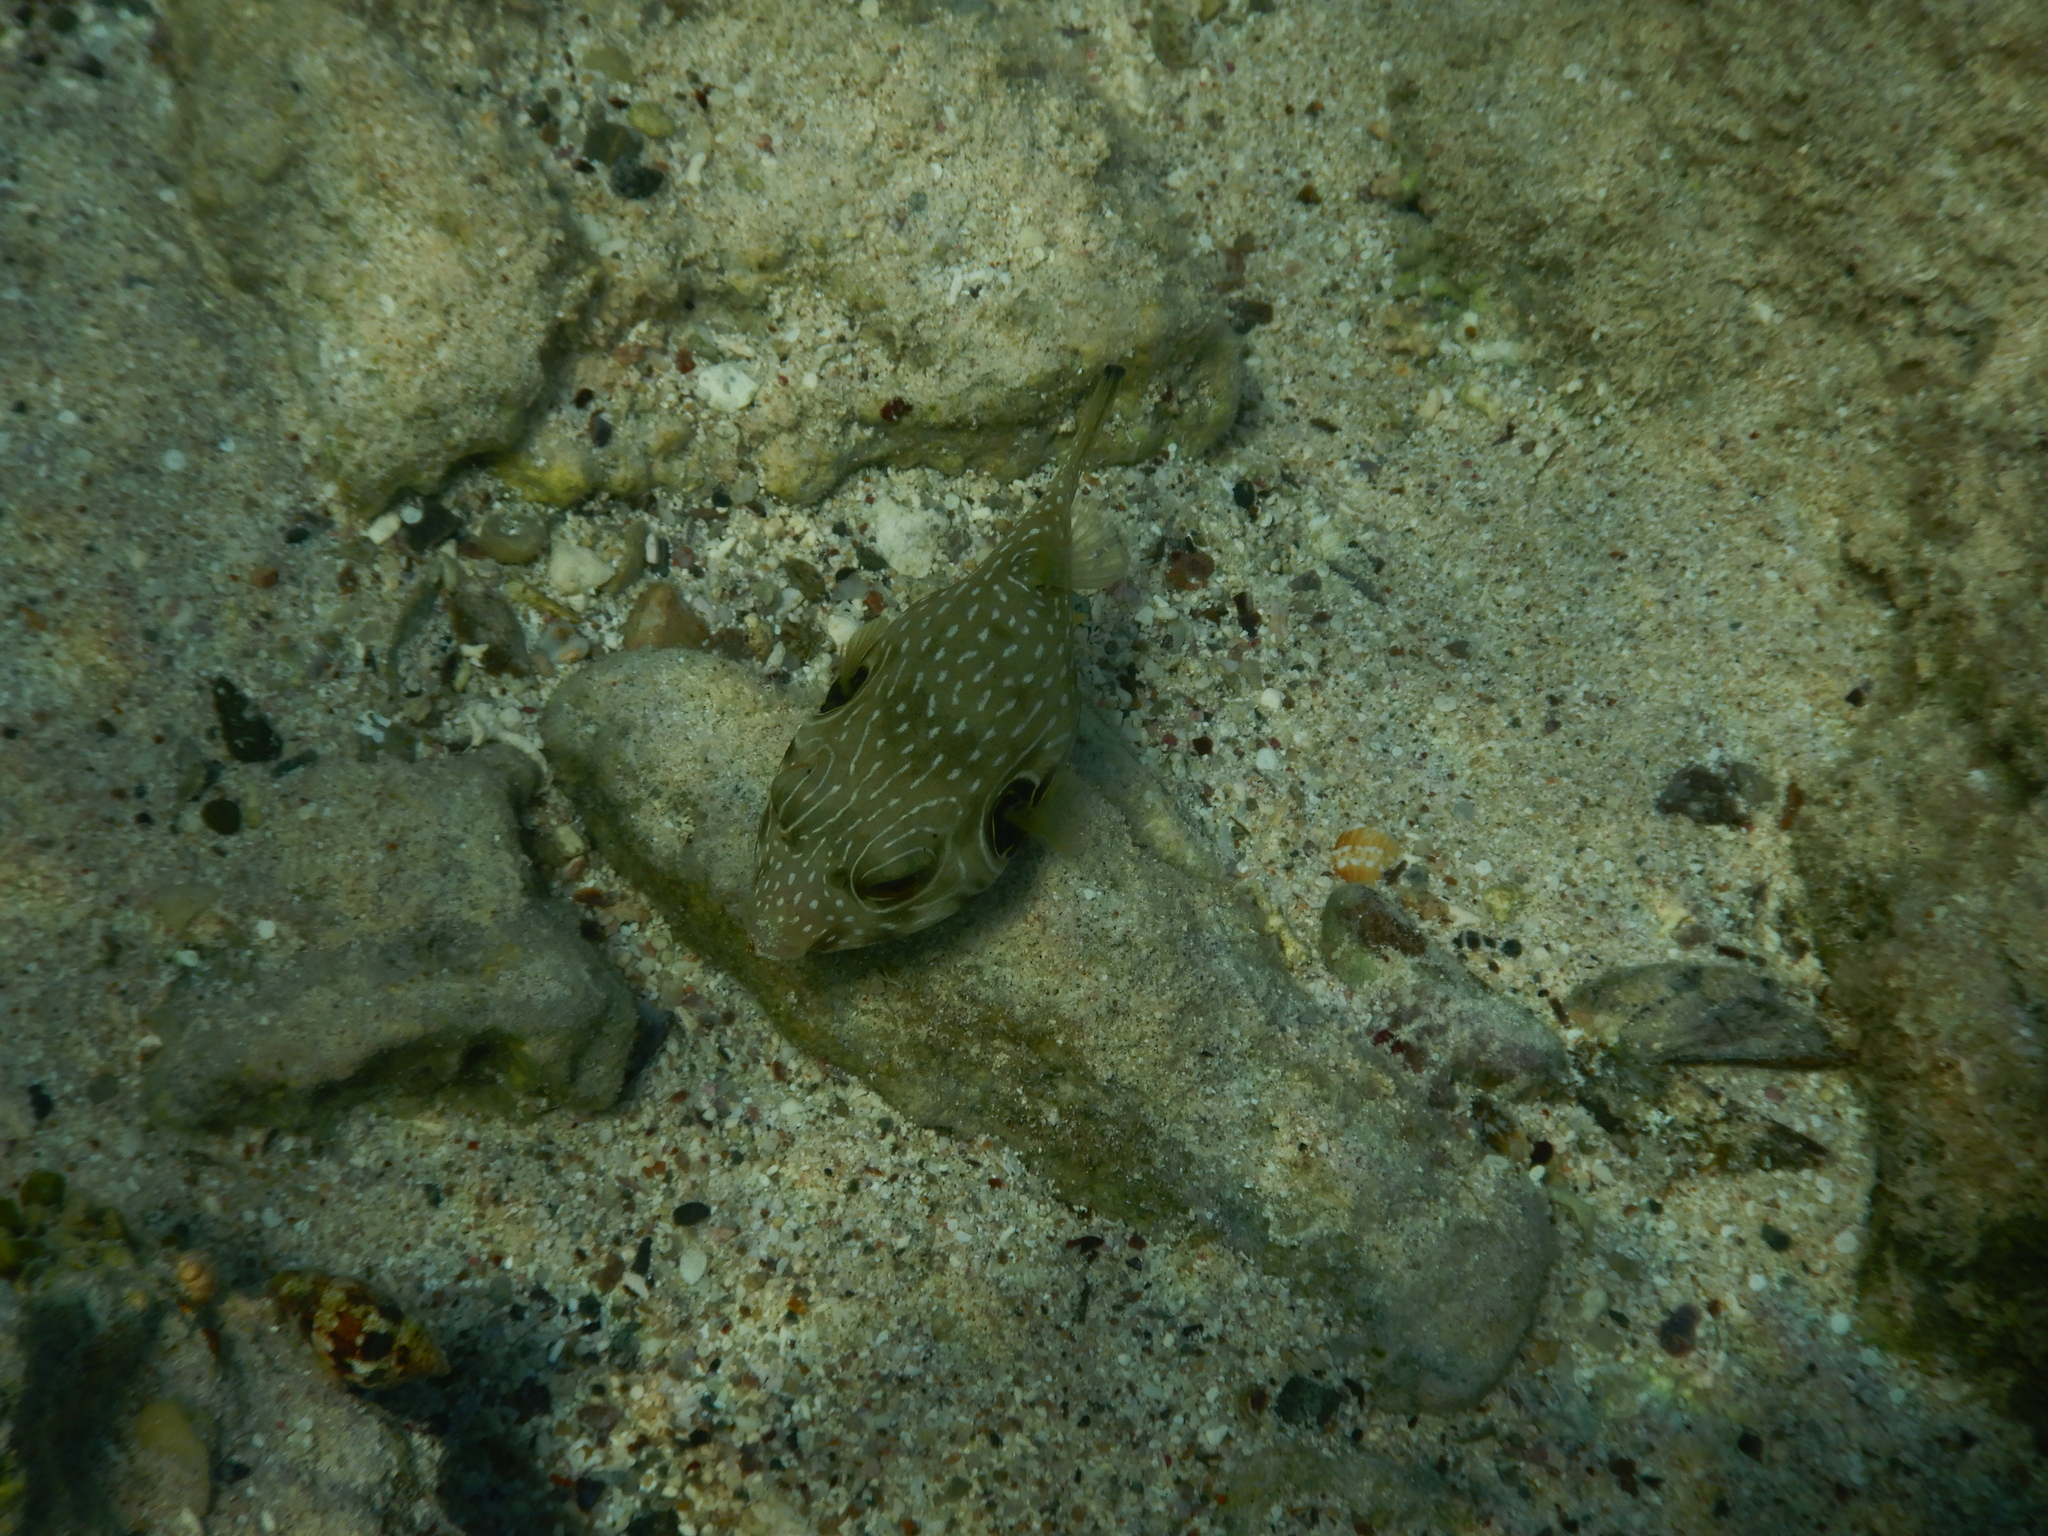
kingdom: Animalia
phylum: Chordata
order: Tetraodontiformes
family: Tetraodontidae
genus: Arothron
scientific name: Arothron hispidus
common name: Stripebelly puffer
